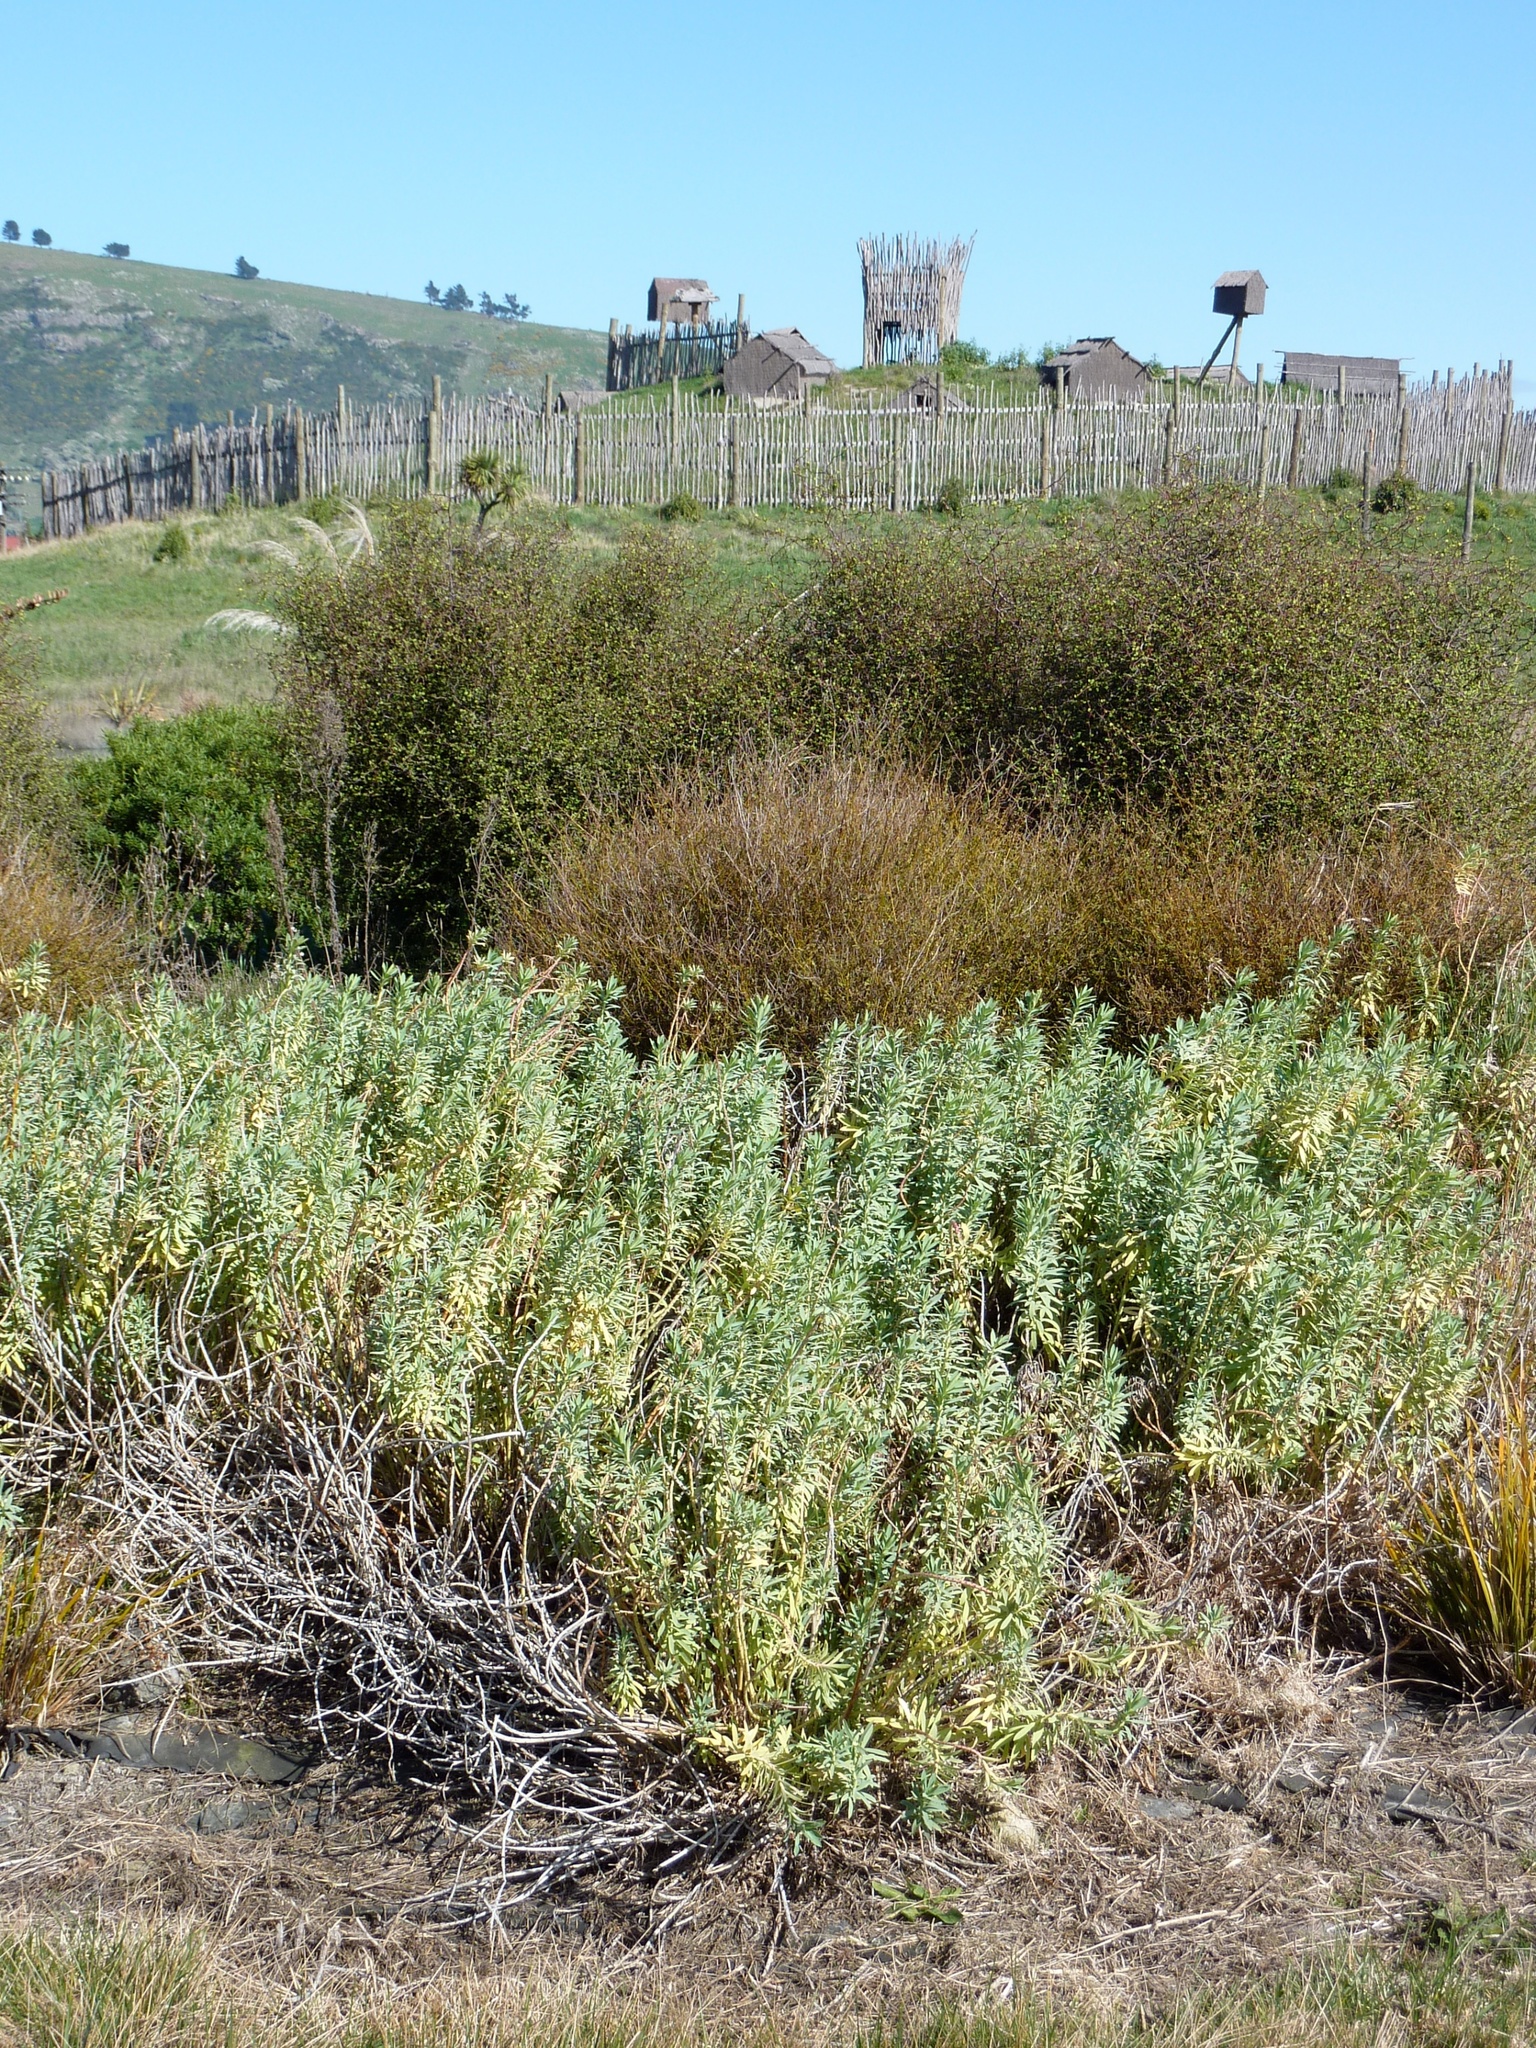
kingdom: Plantae
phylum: Tracheophyta
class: Magnoliopsida
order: Malpighiales
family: Euphorbiaceae
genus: Euphorbia
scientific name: Euphorbia glauca
